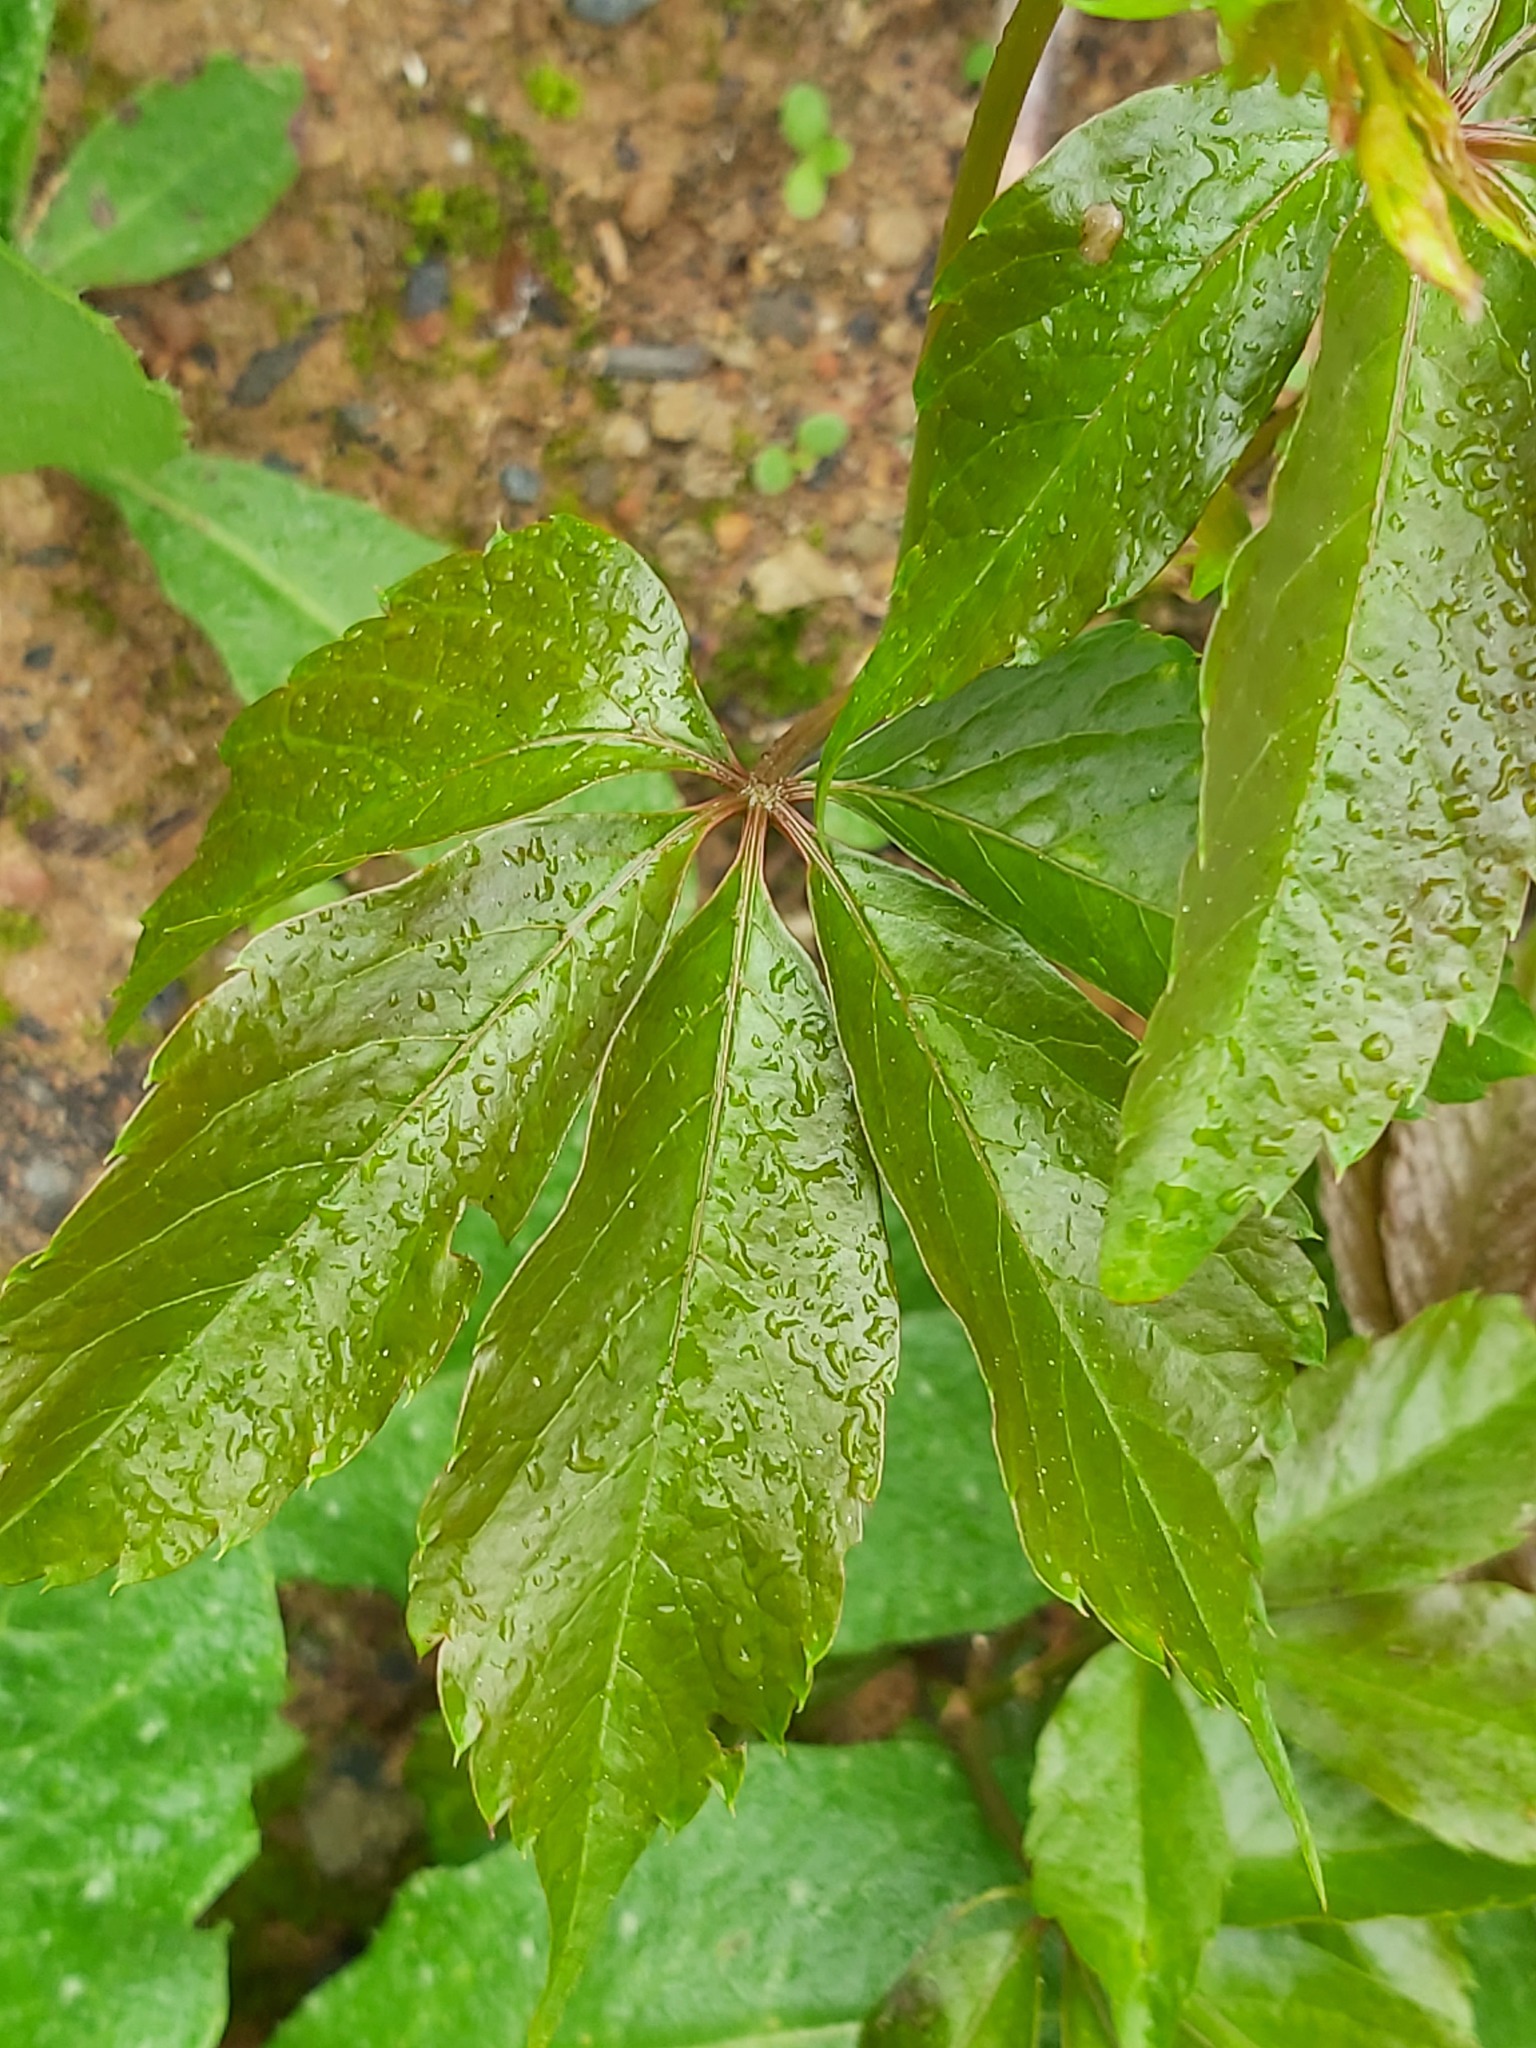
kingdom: Plantae
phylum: Tracheophyta
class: Magnoliopsida
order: Vitales
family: Vitaceae
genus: Parthenocissus
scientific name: Parthenocissus quinquefolia
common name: Virginia-creeper
